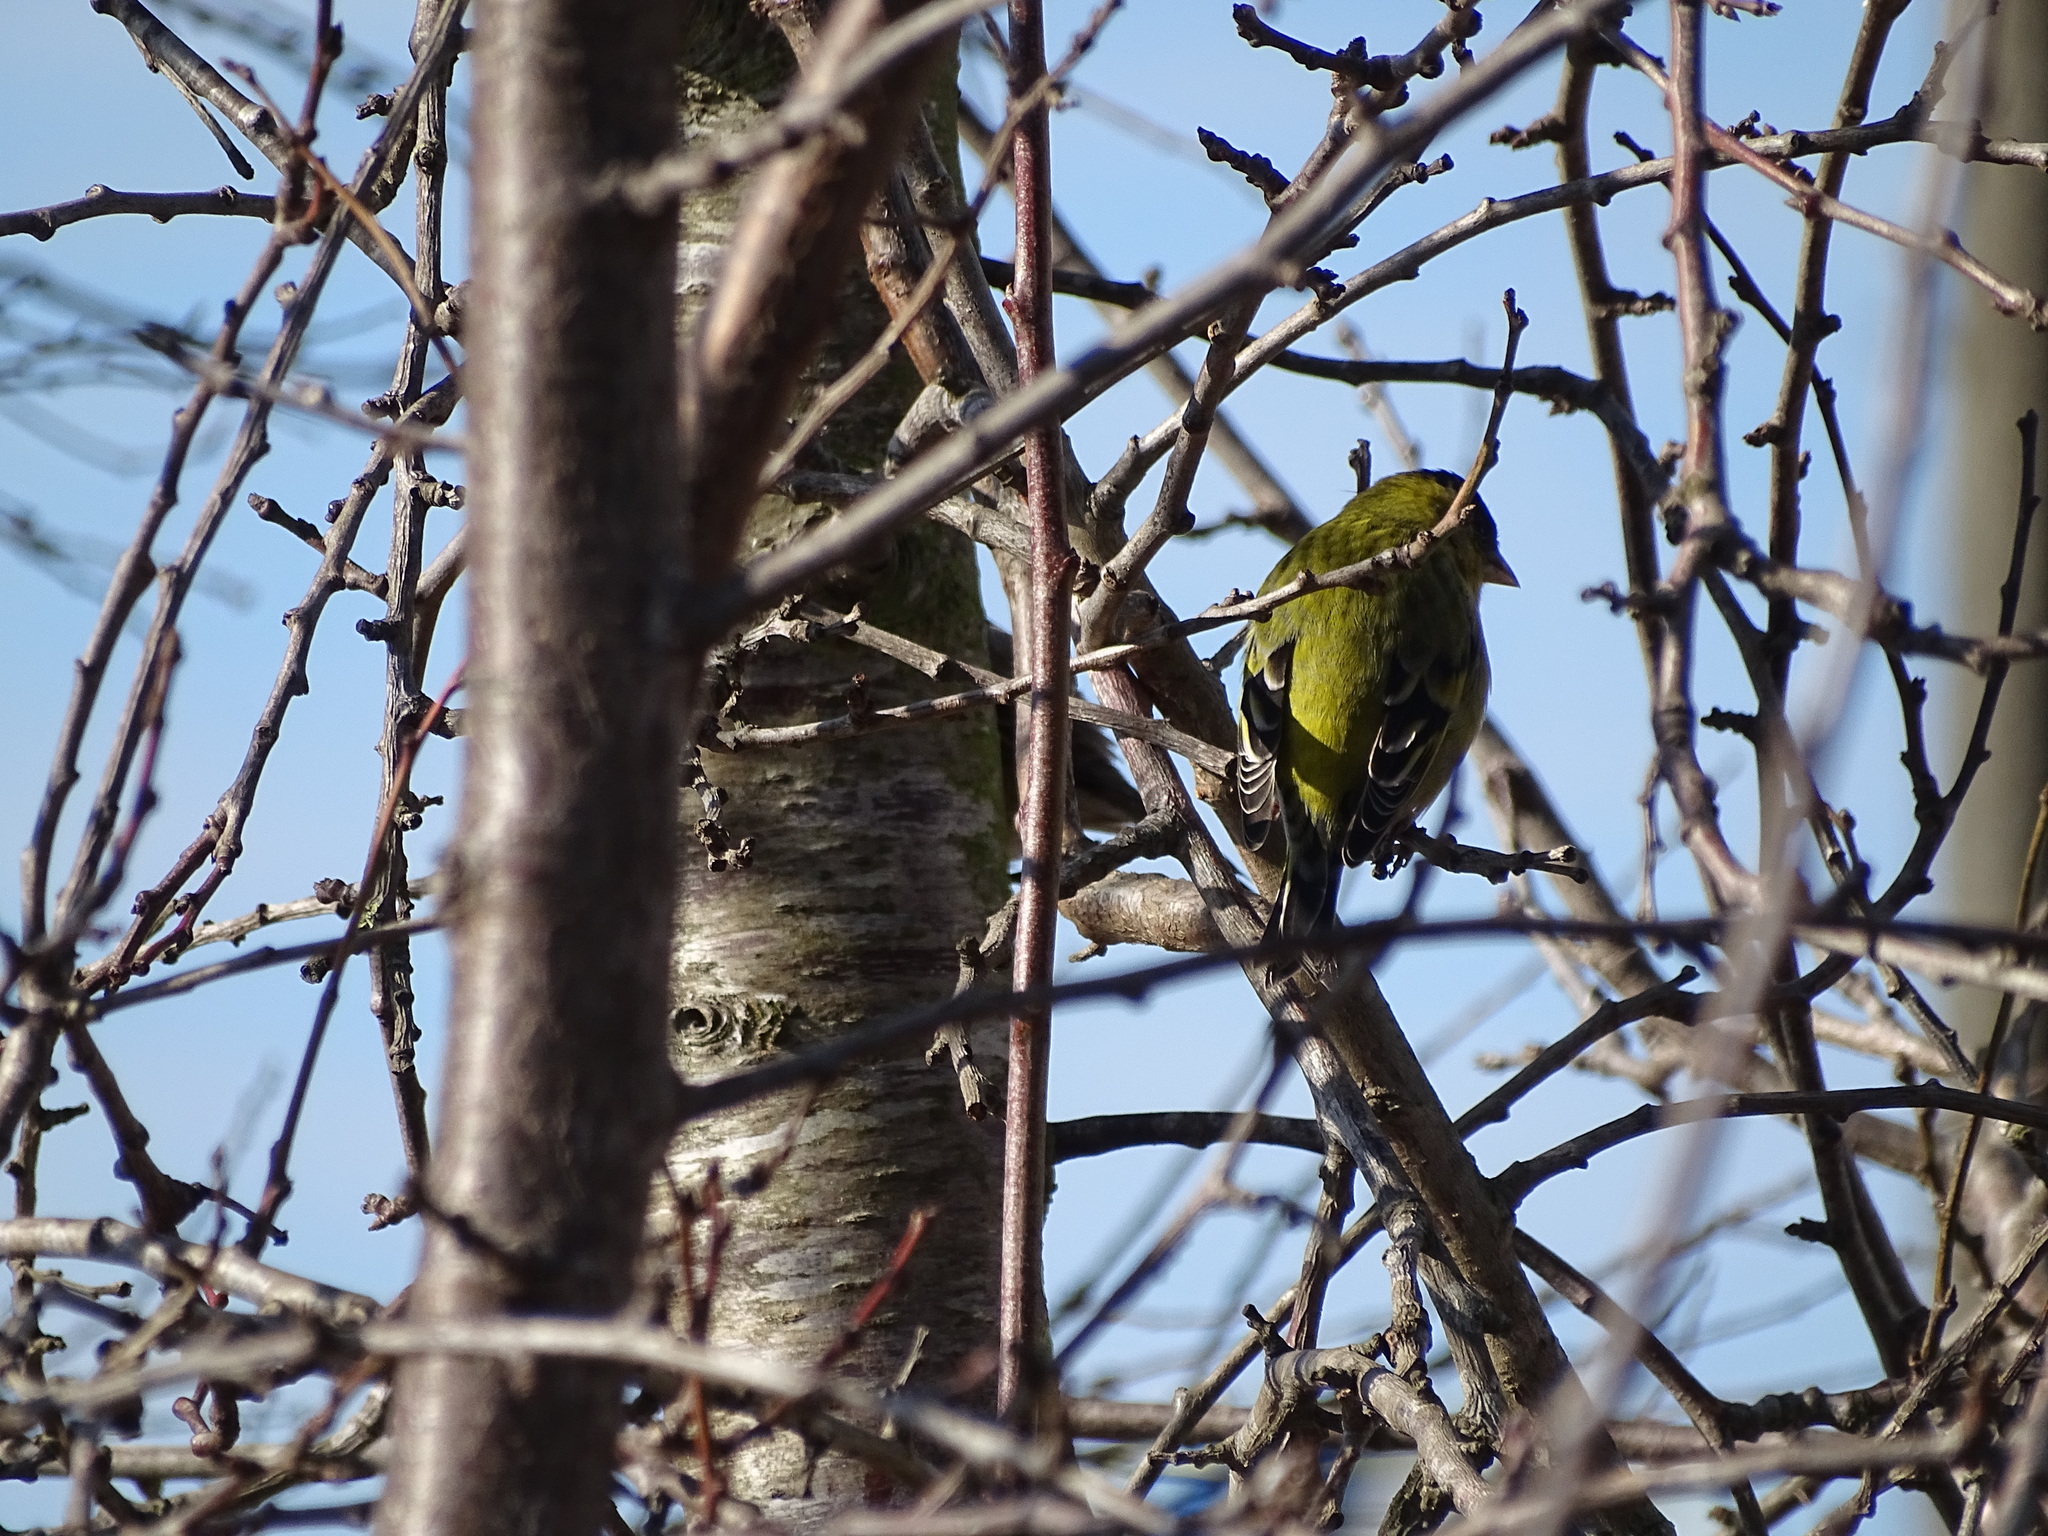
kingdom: Animalia
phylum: Chordata
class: Aves
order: Passeriformes
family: Fringillidae
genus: Spinus
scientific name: Spinus barbatus
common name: Black-chinned siskin
